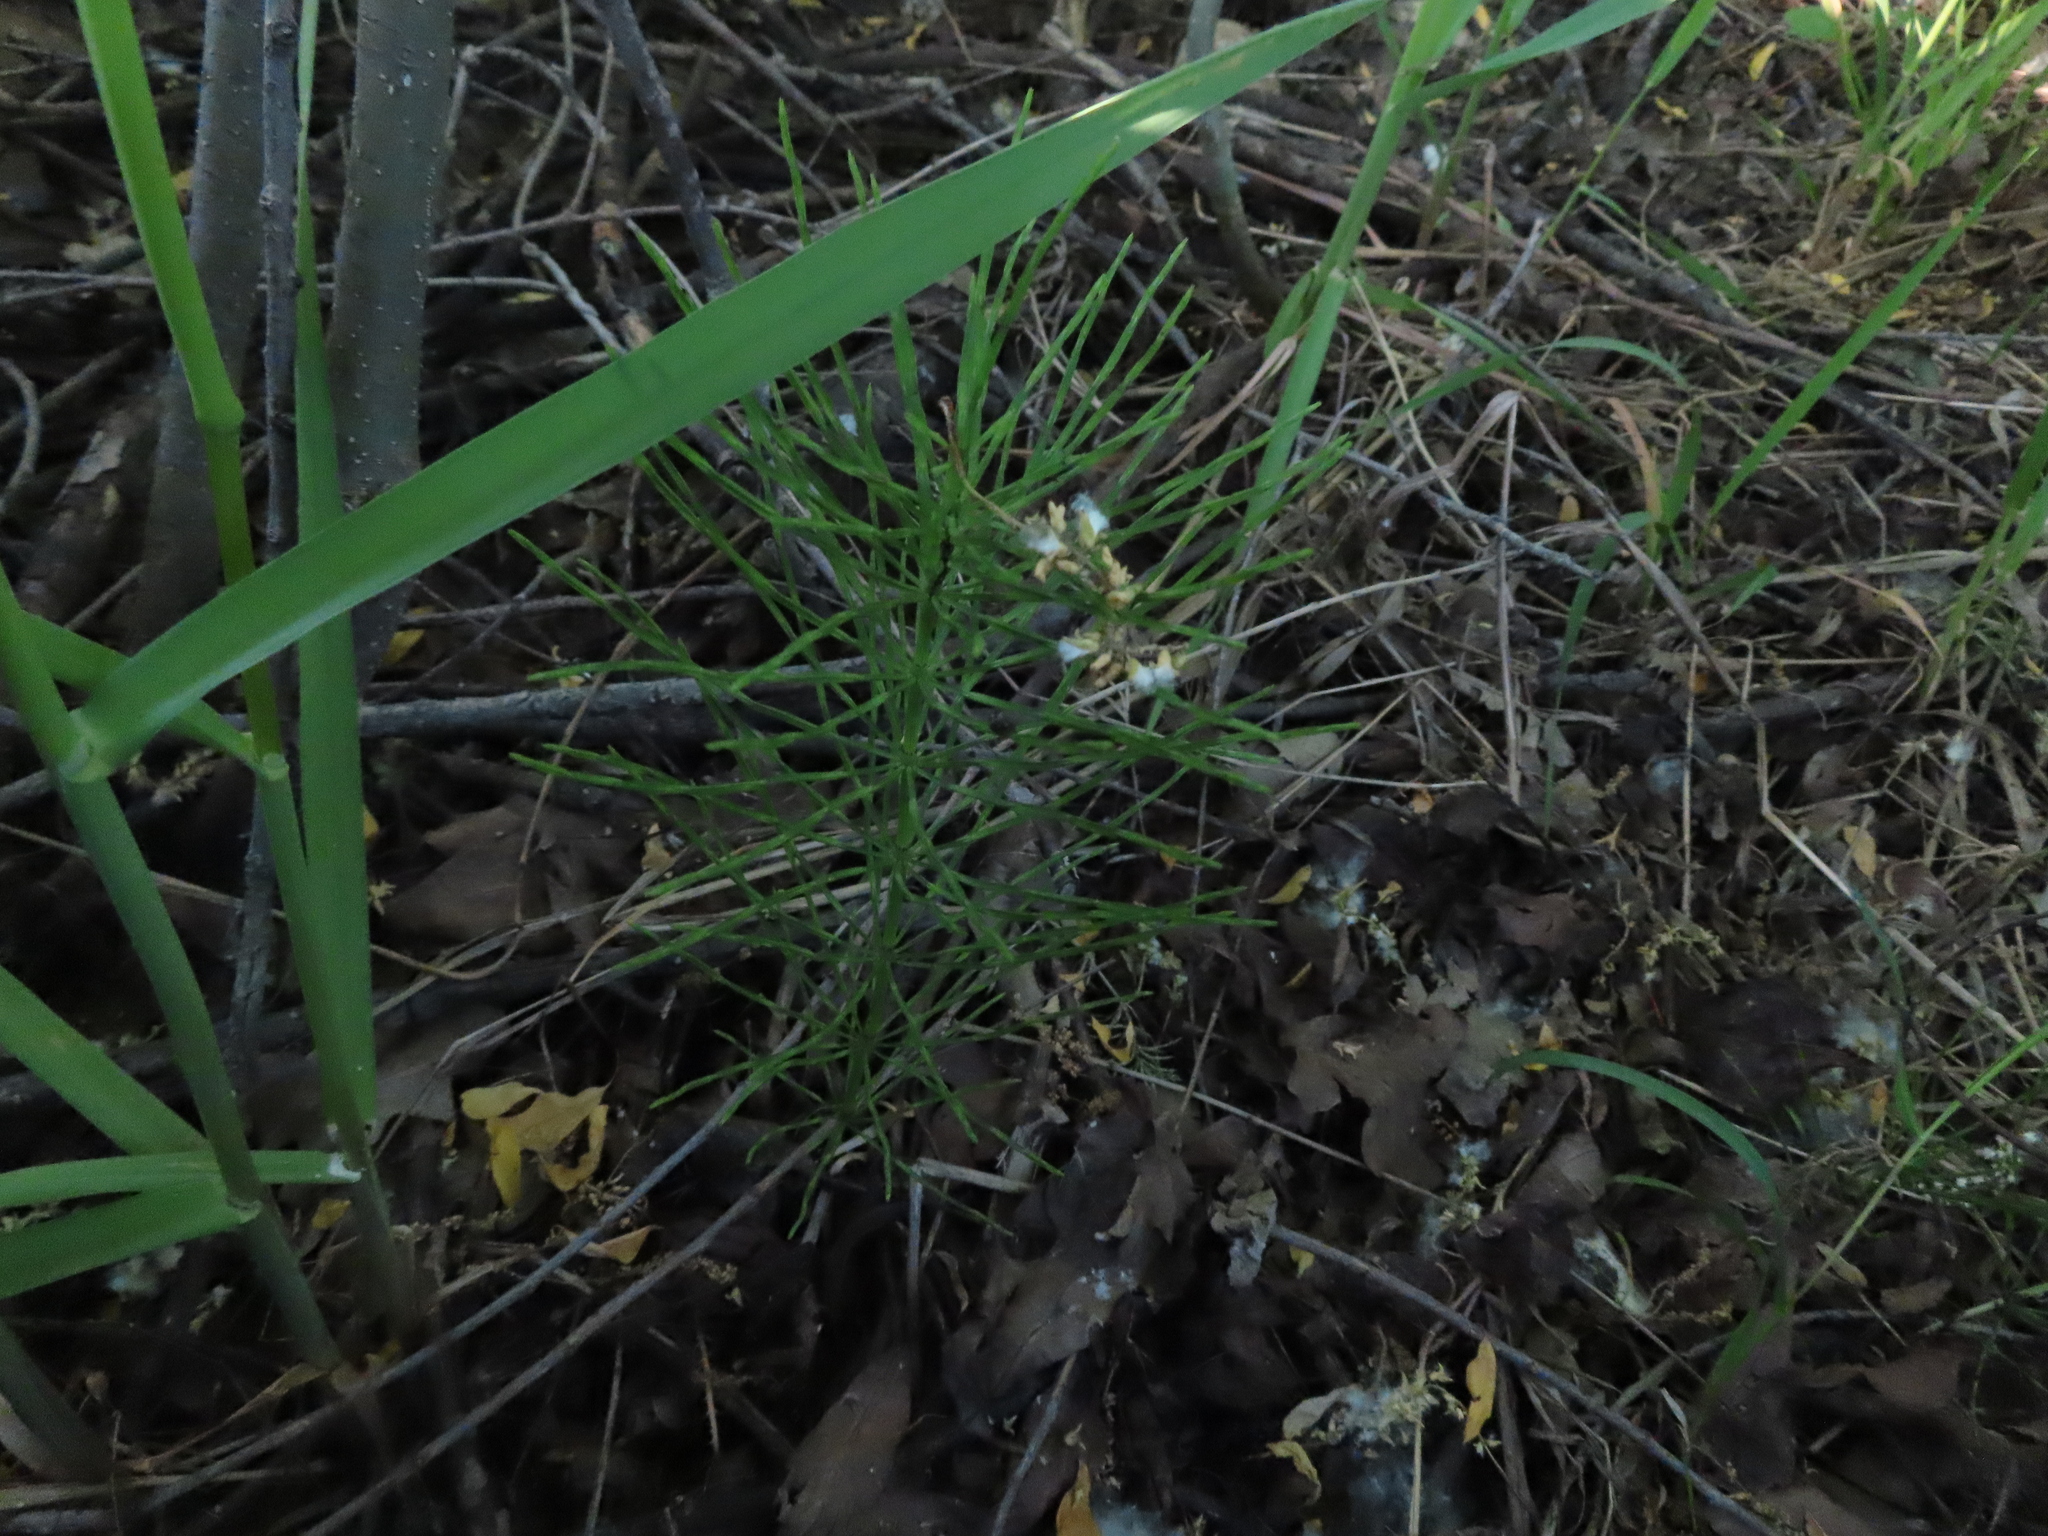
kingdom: Plantae
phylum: Tracheophyta
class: Polypodiopsida
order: Equisetales
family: Equisetaceae
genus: Equisetum
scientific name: Equisetum arvense
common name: Field horsetail
